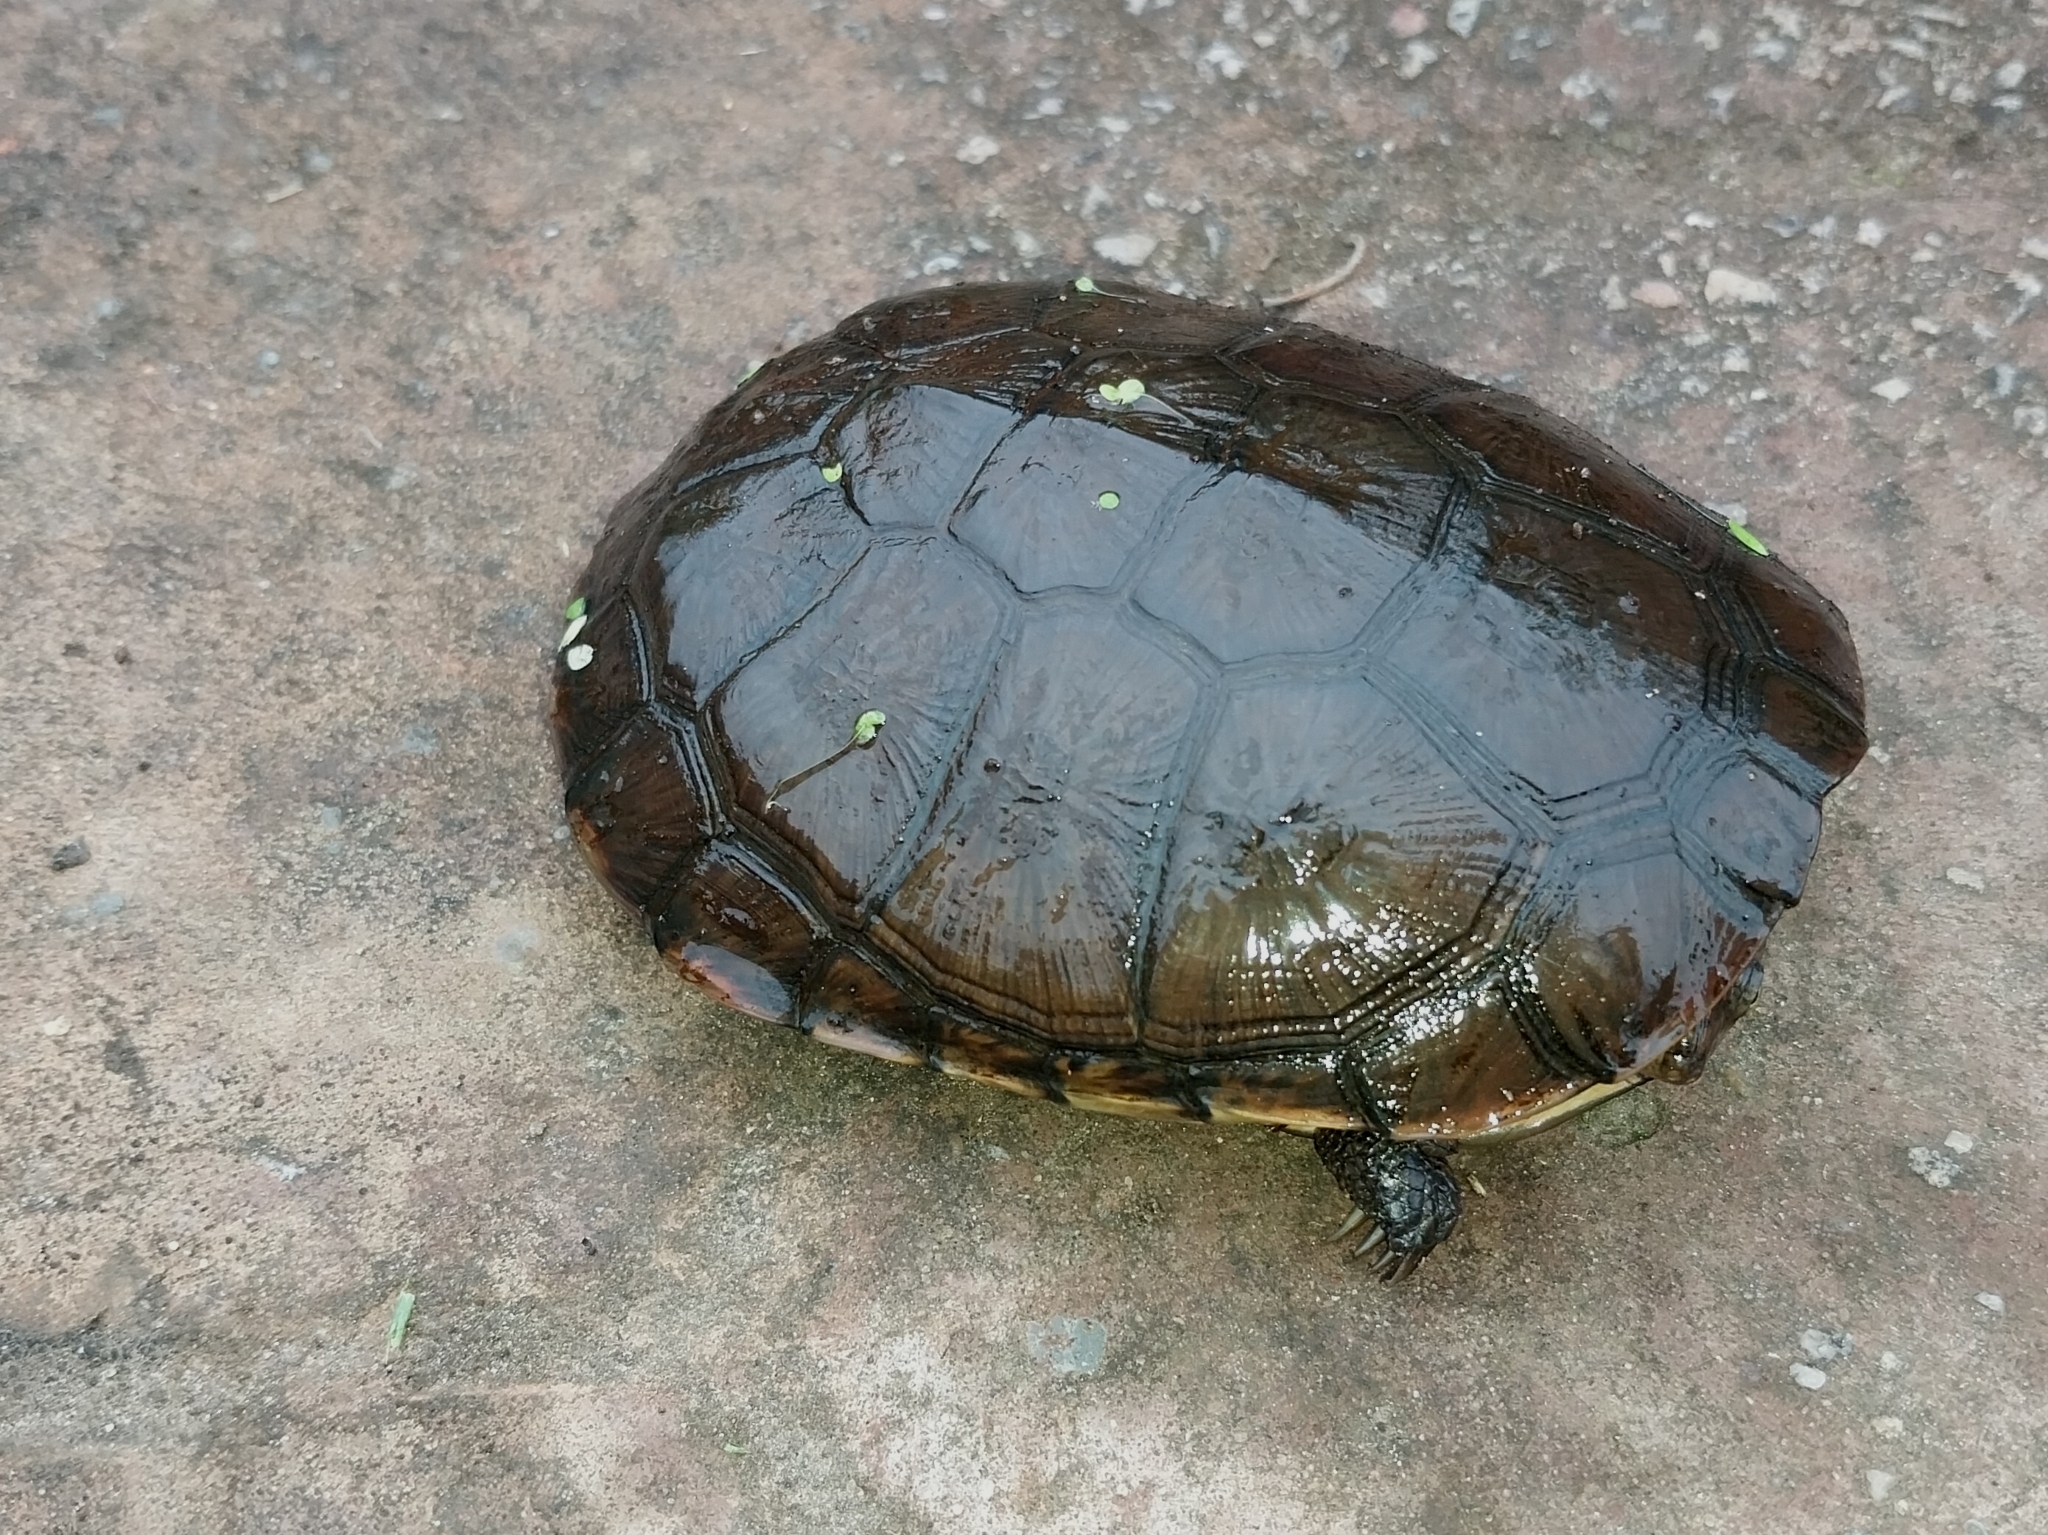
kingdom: Animalia
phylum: Chordata
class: Testudines
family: Pelomedusidae
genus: Pelomedusa
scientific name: Pelomedusa galeata
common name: South african helmeted terrapin
